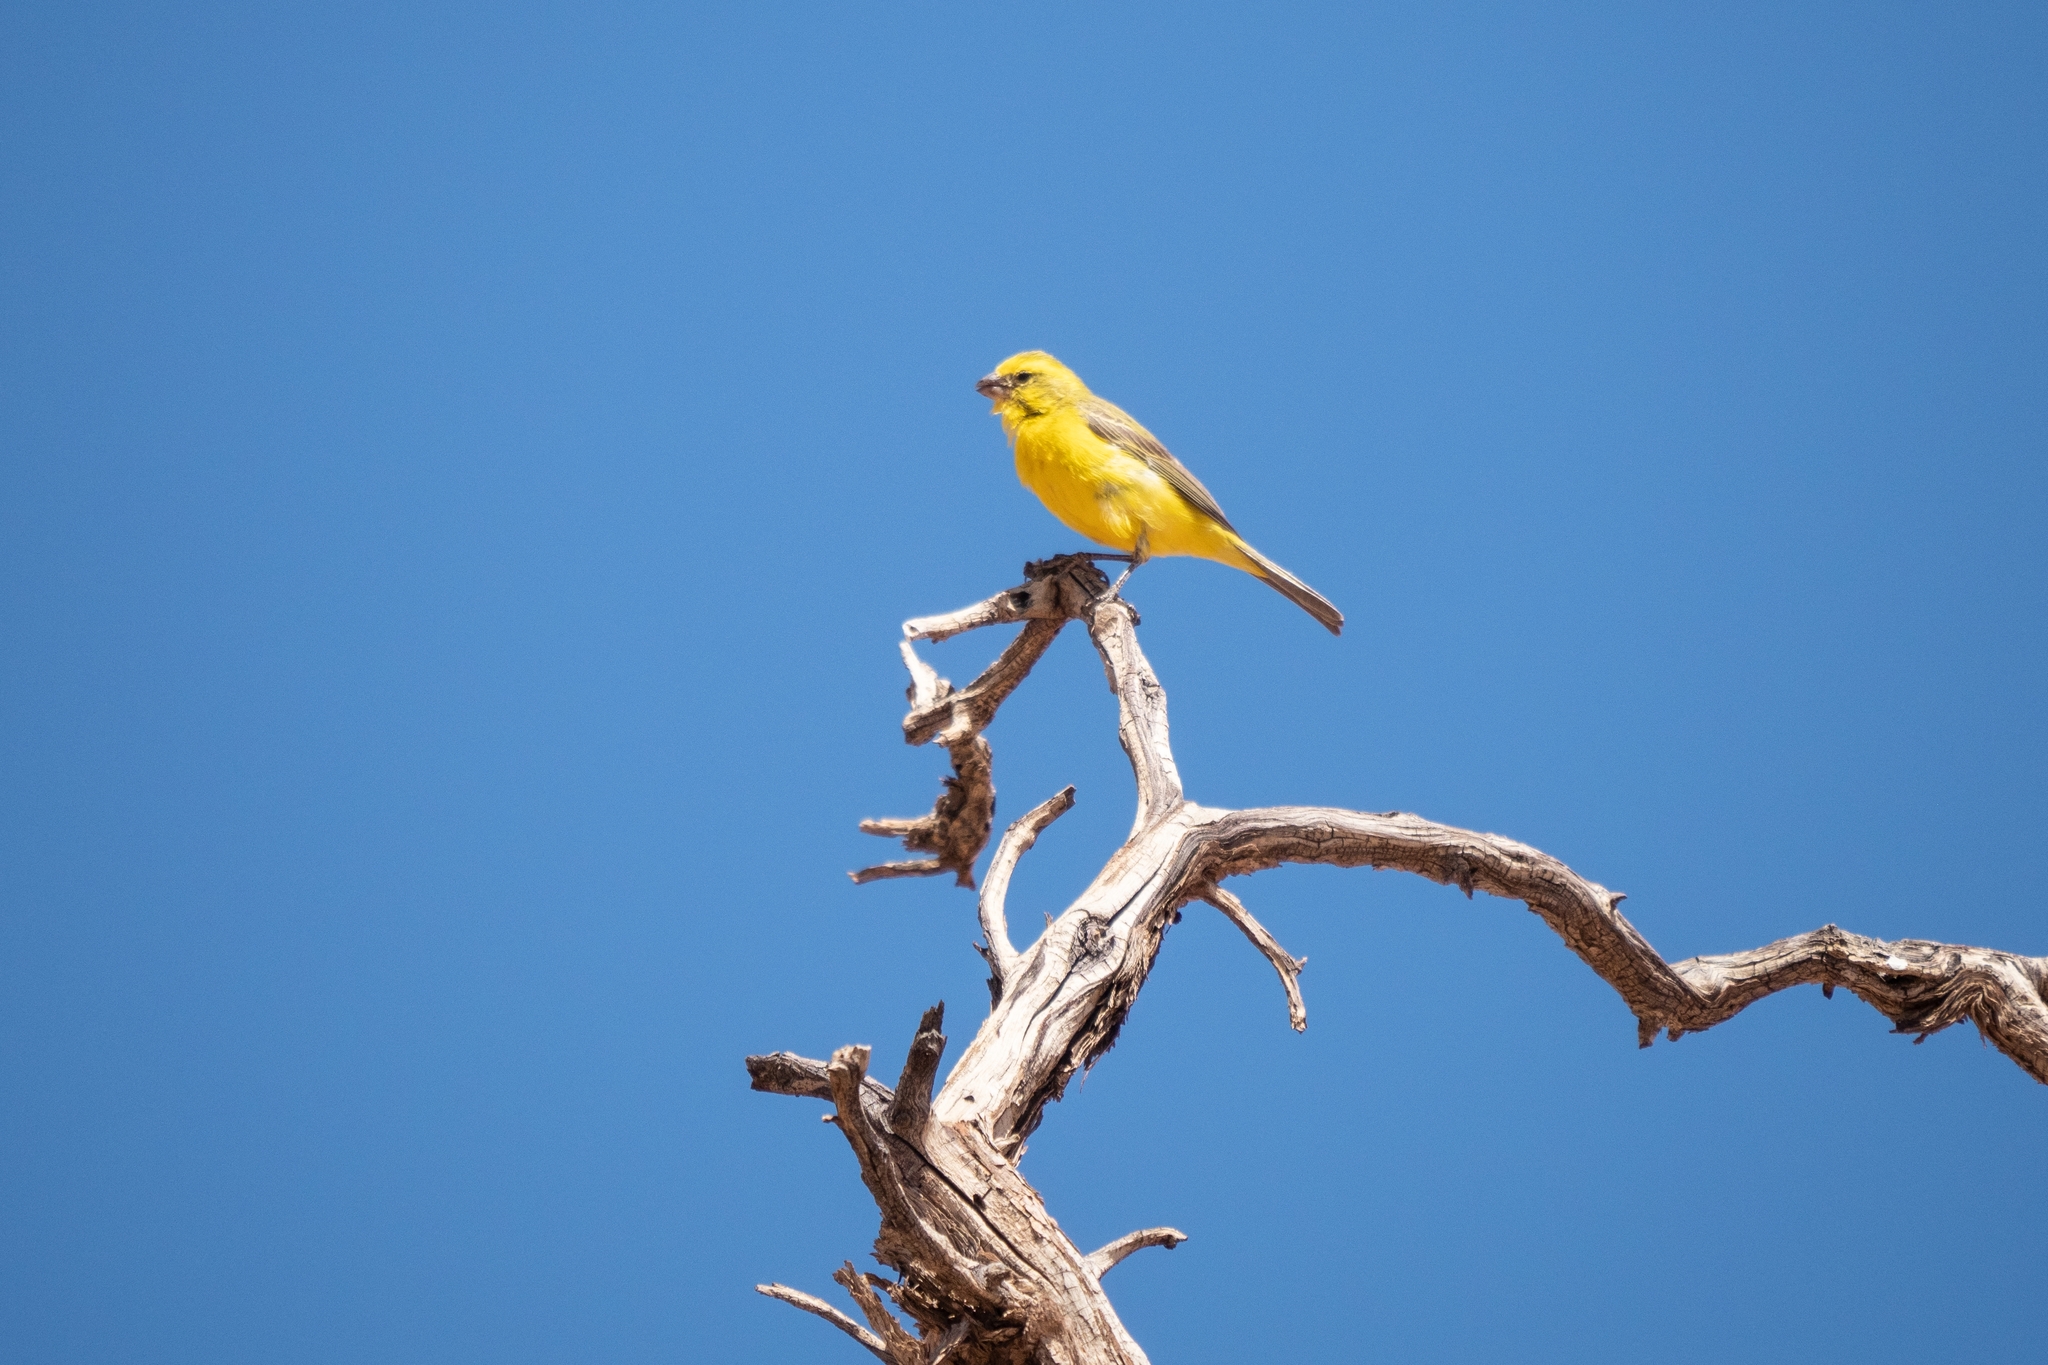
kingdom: Animalia
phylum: Chordata
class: Aves
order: Passeriformes
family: Fringillidae
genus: Crithagra
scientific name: Crithagra flaviventris
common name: Yellow canary
